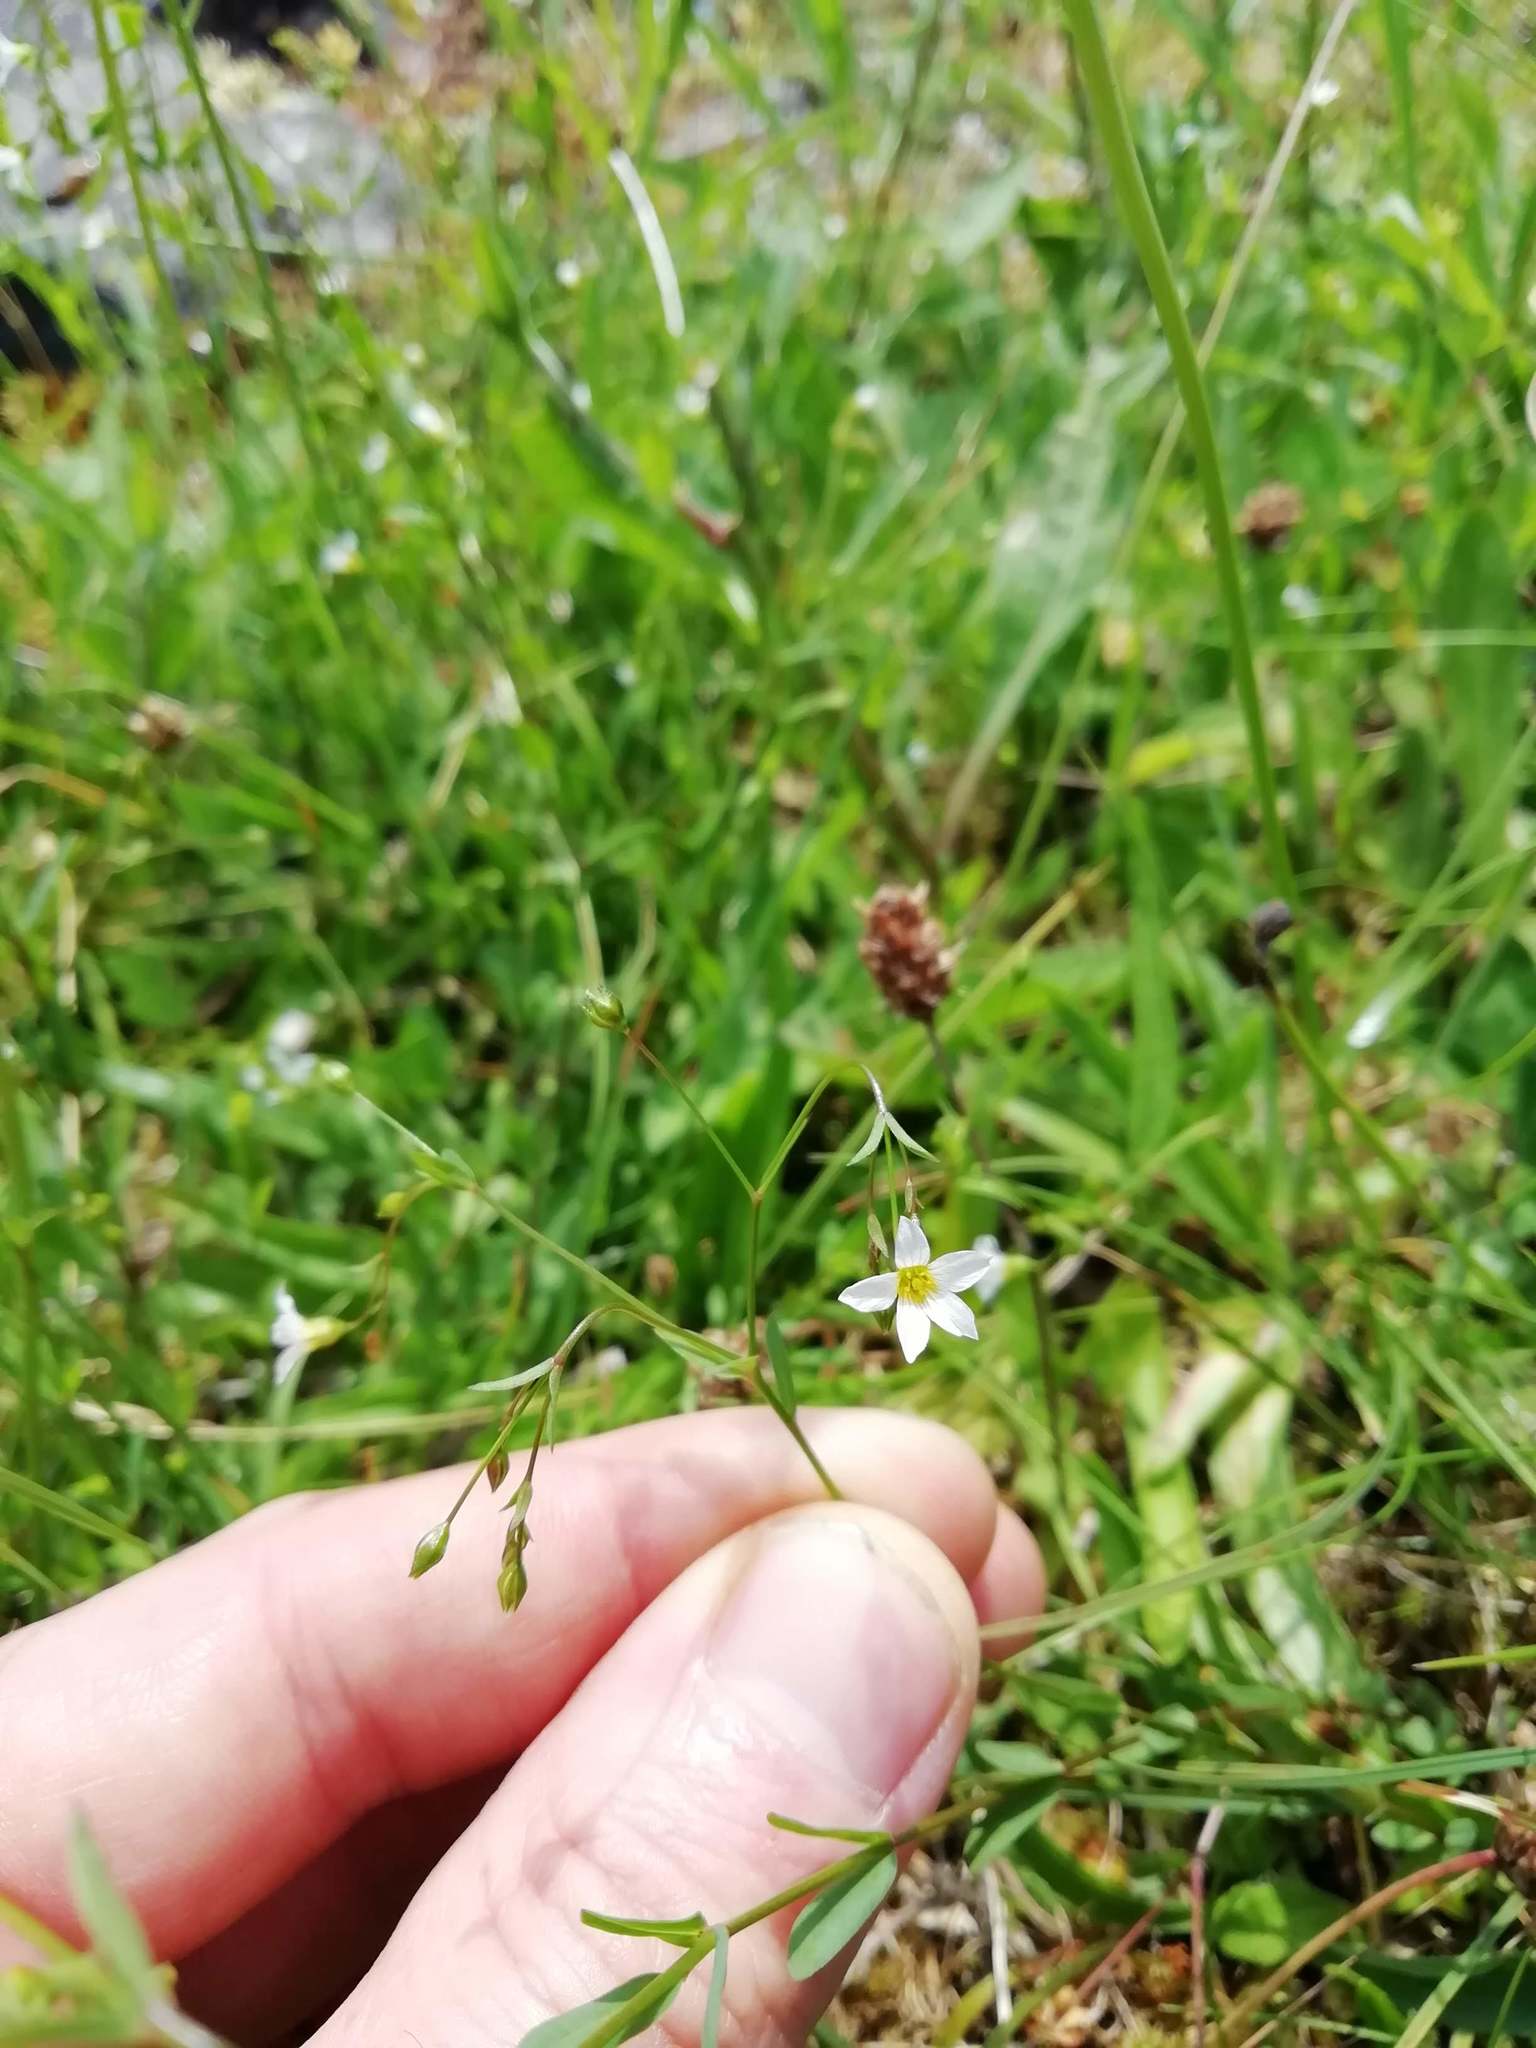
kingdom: Plantae
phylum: Tracheophyta
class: Magnoliopsida
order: Malpighiales
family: Linaceae
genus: Linum
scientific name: Linum catharticum
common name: Fairy flax
